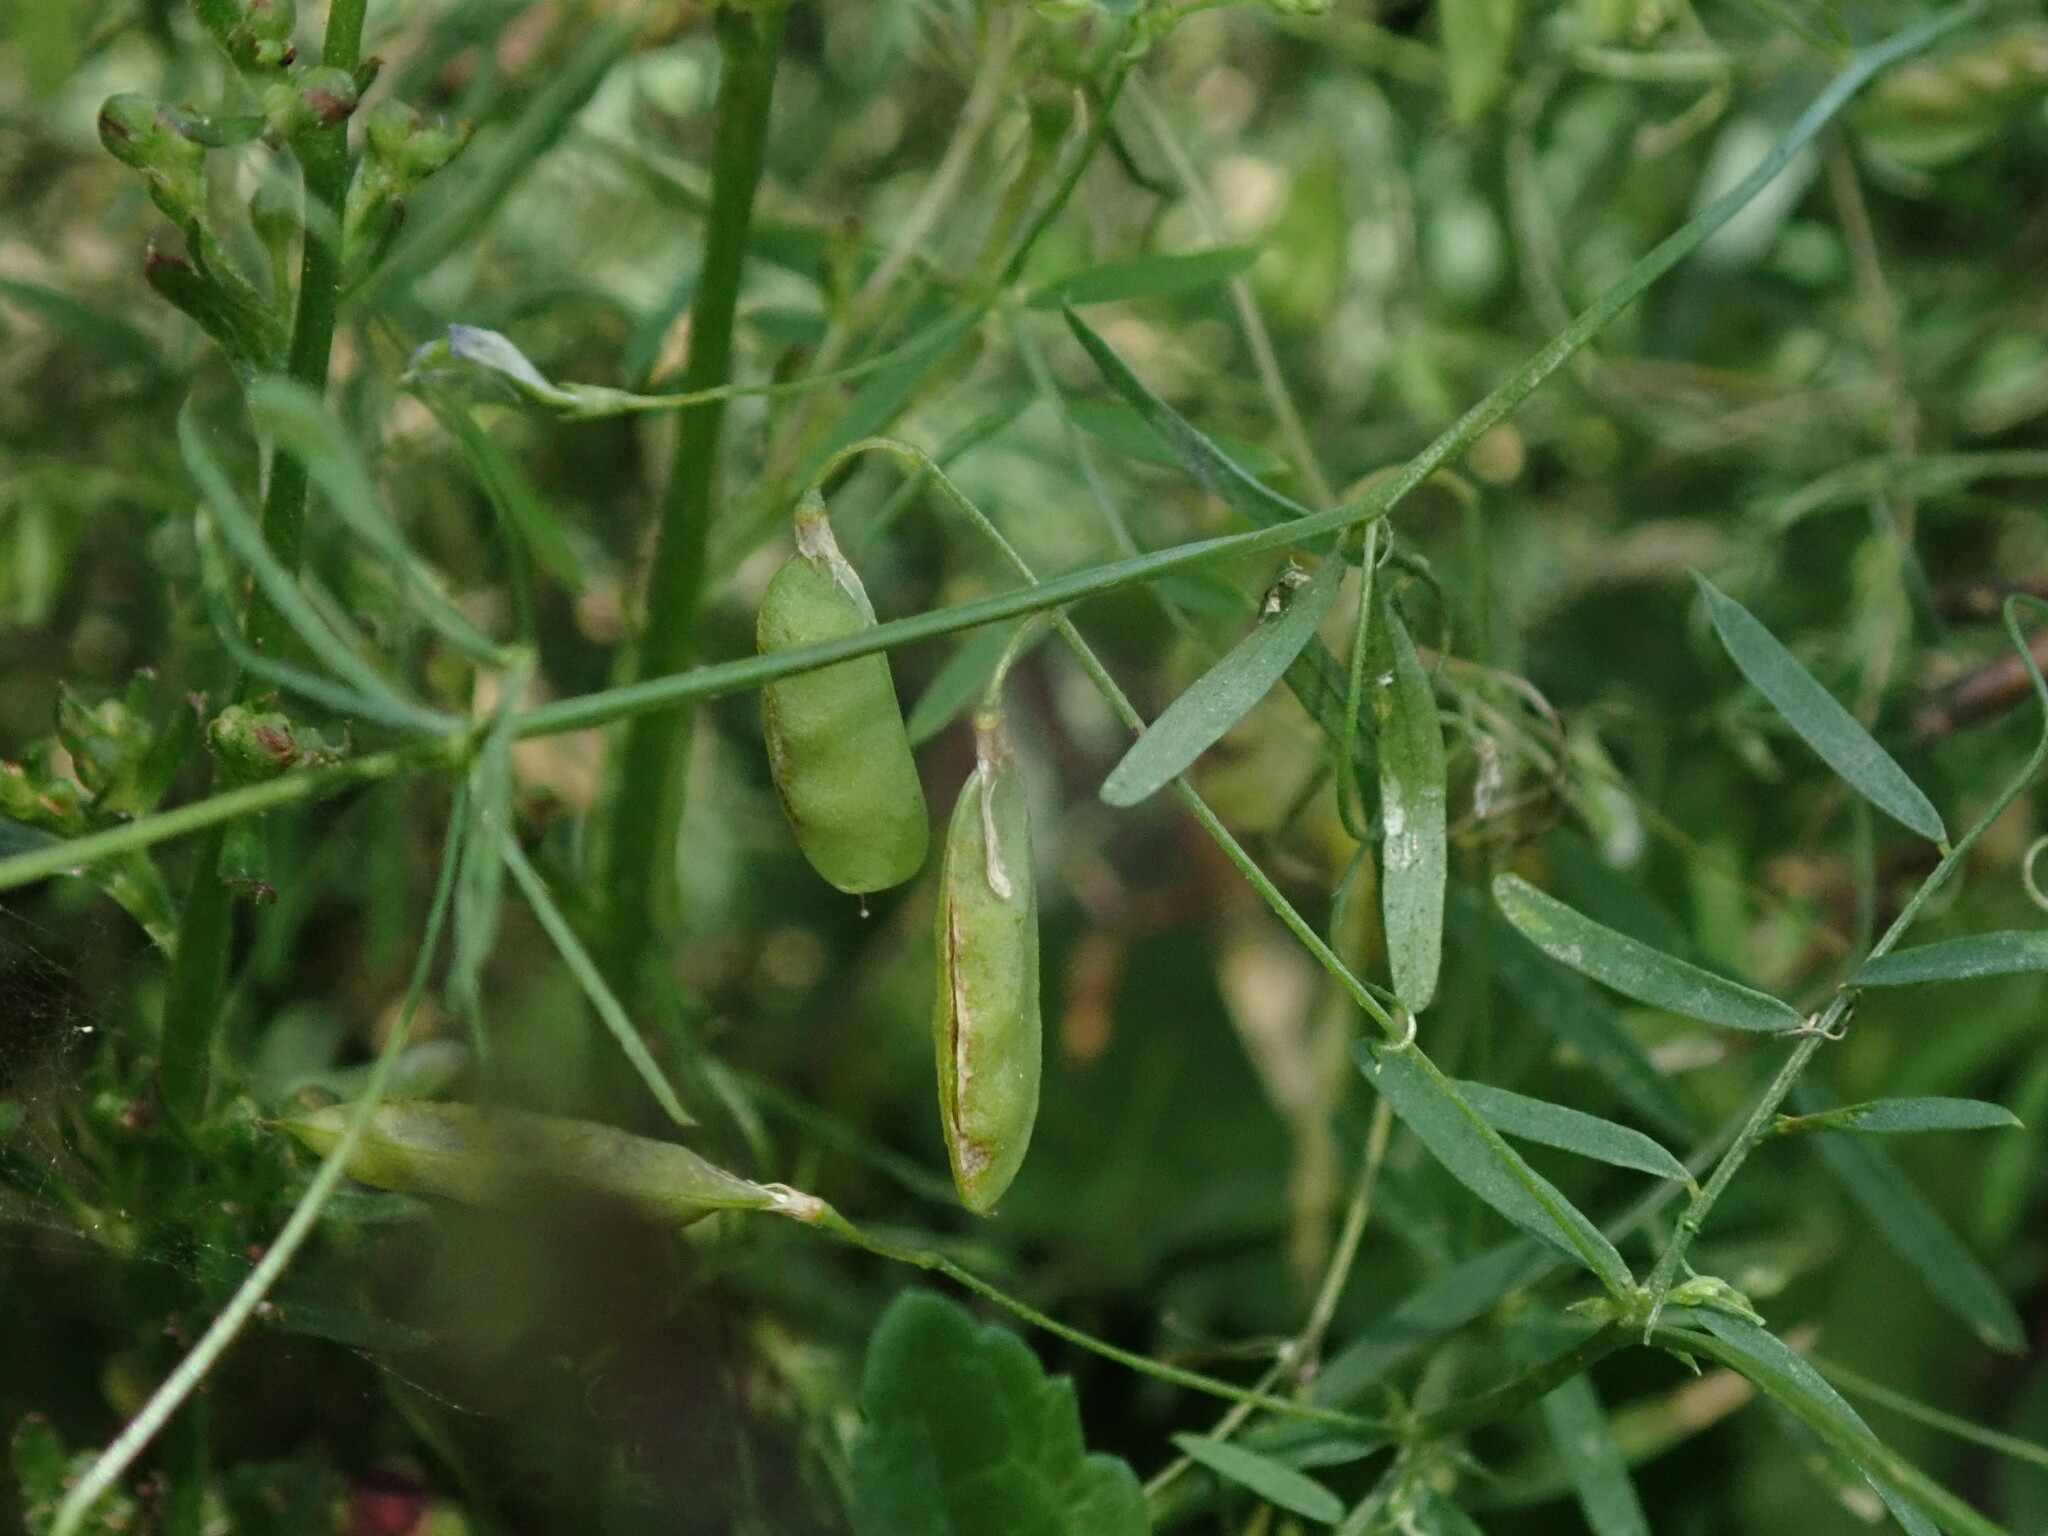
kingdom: Plantae
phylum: Tracheophyta
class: Magnoliopsida
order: Fabales
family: Fabaceae
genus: Vicia
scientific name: Vicia tetrasperma
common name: Smooth tare
